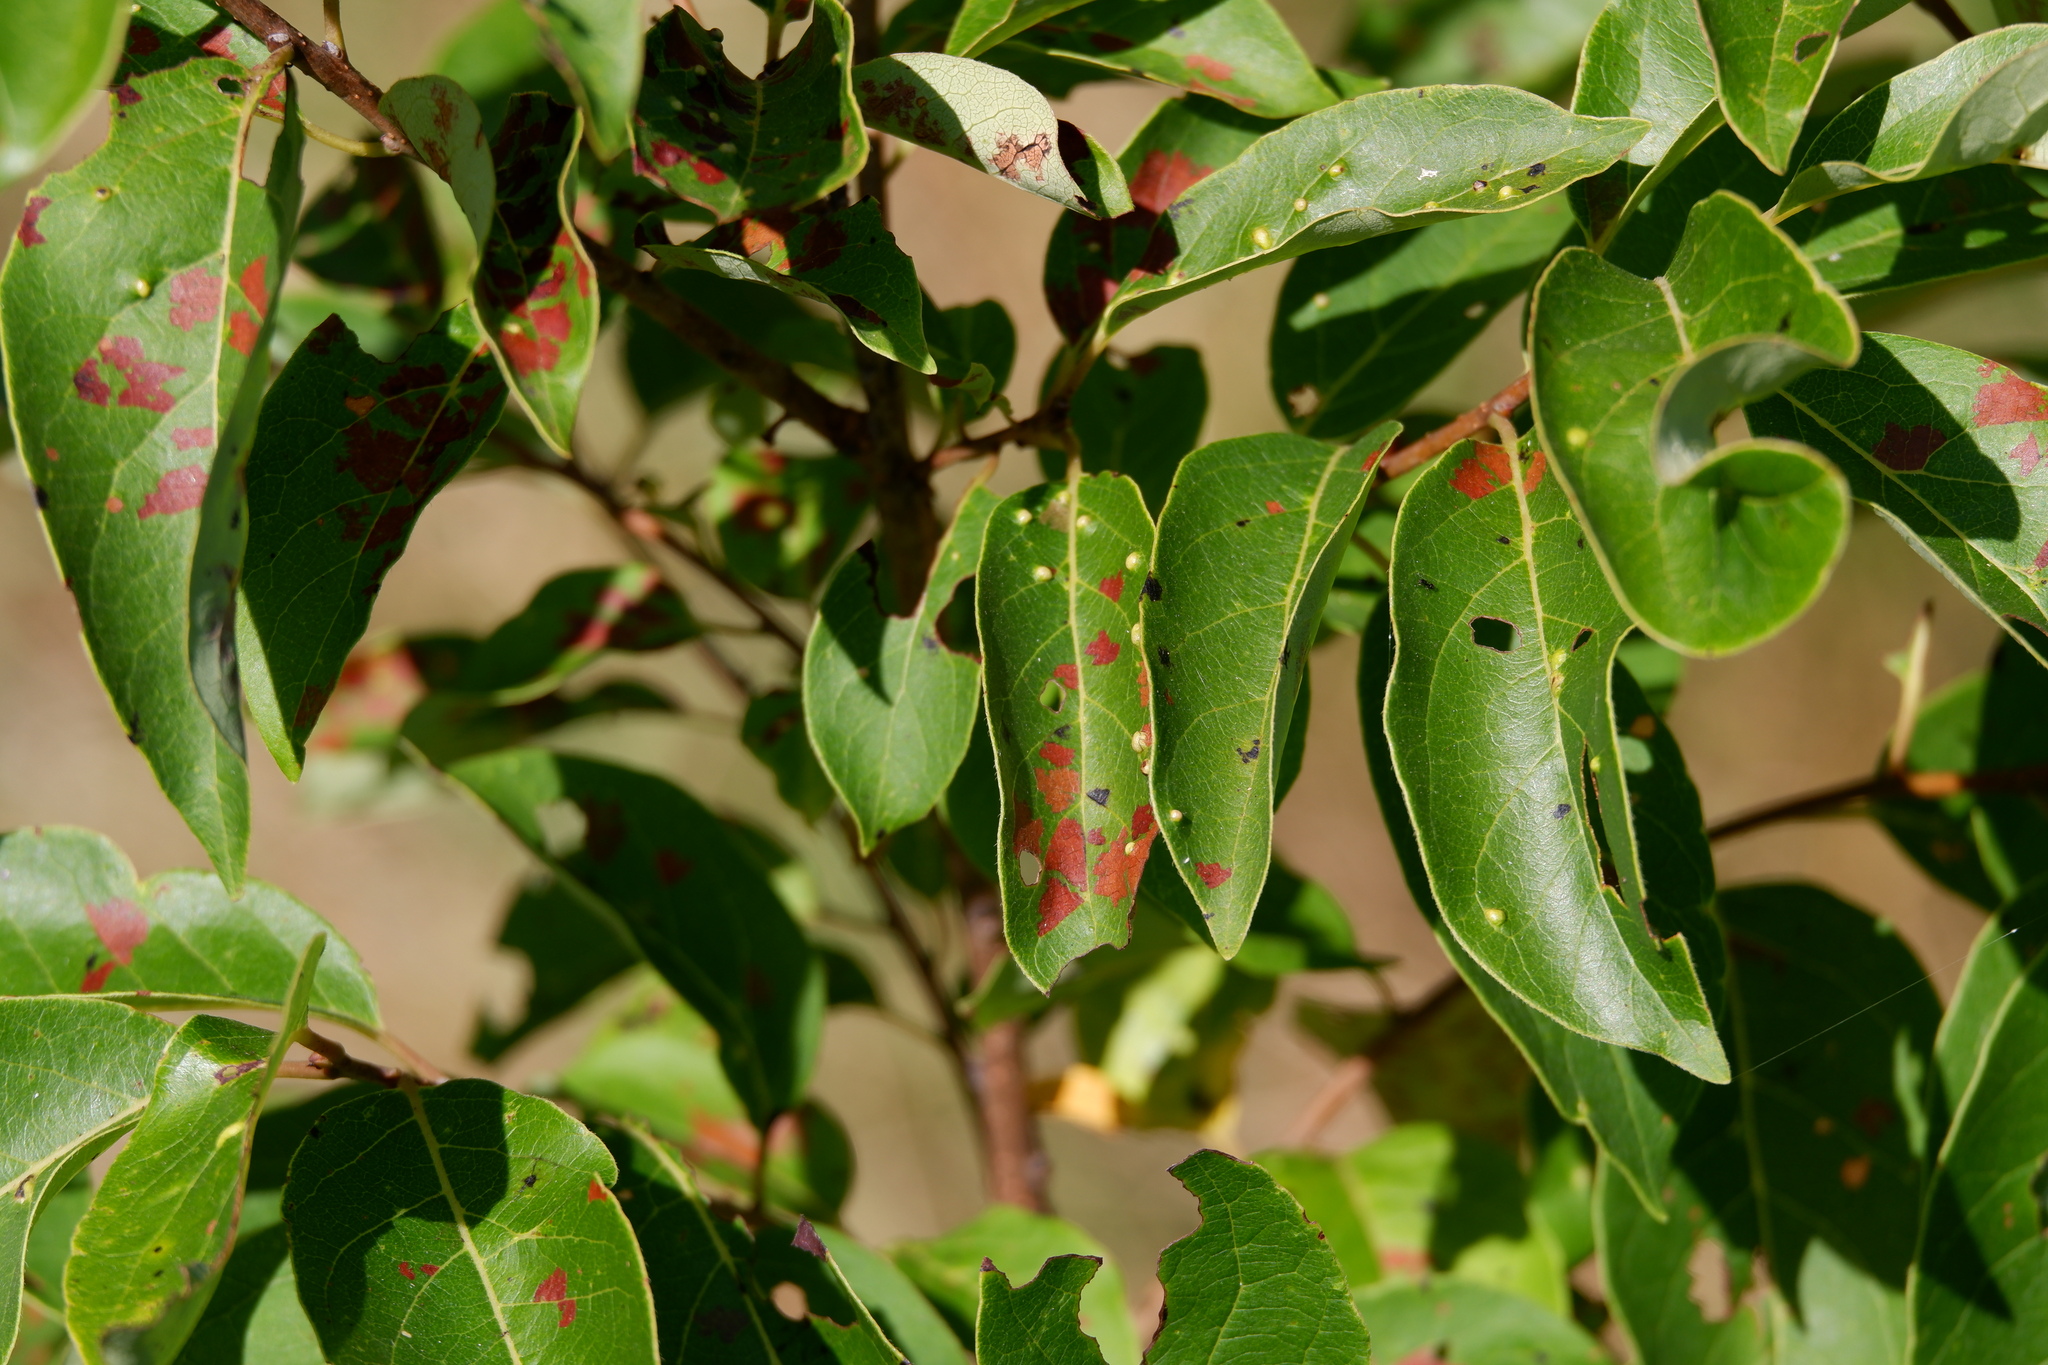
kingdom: Animalia
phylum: Arthropoda
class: Arachnida
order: Trombidiformes
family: Eriophyidae
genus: Aceria
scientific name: Aceria
